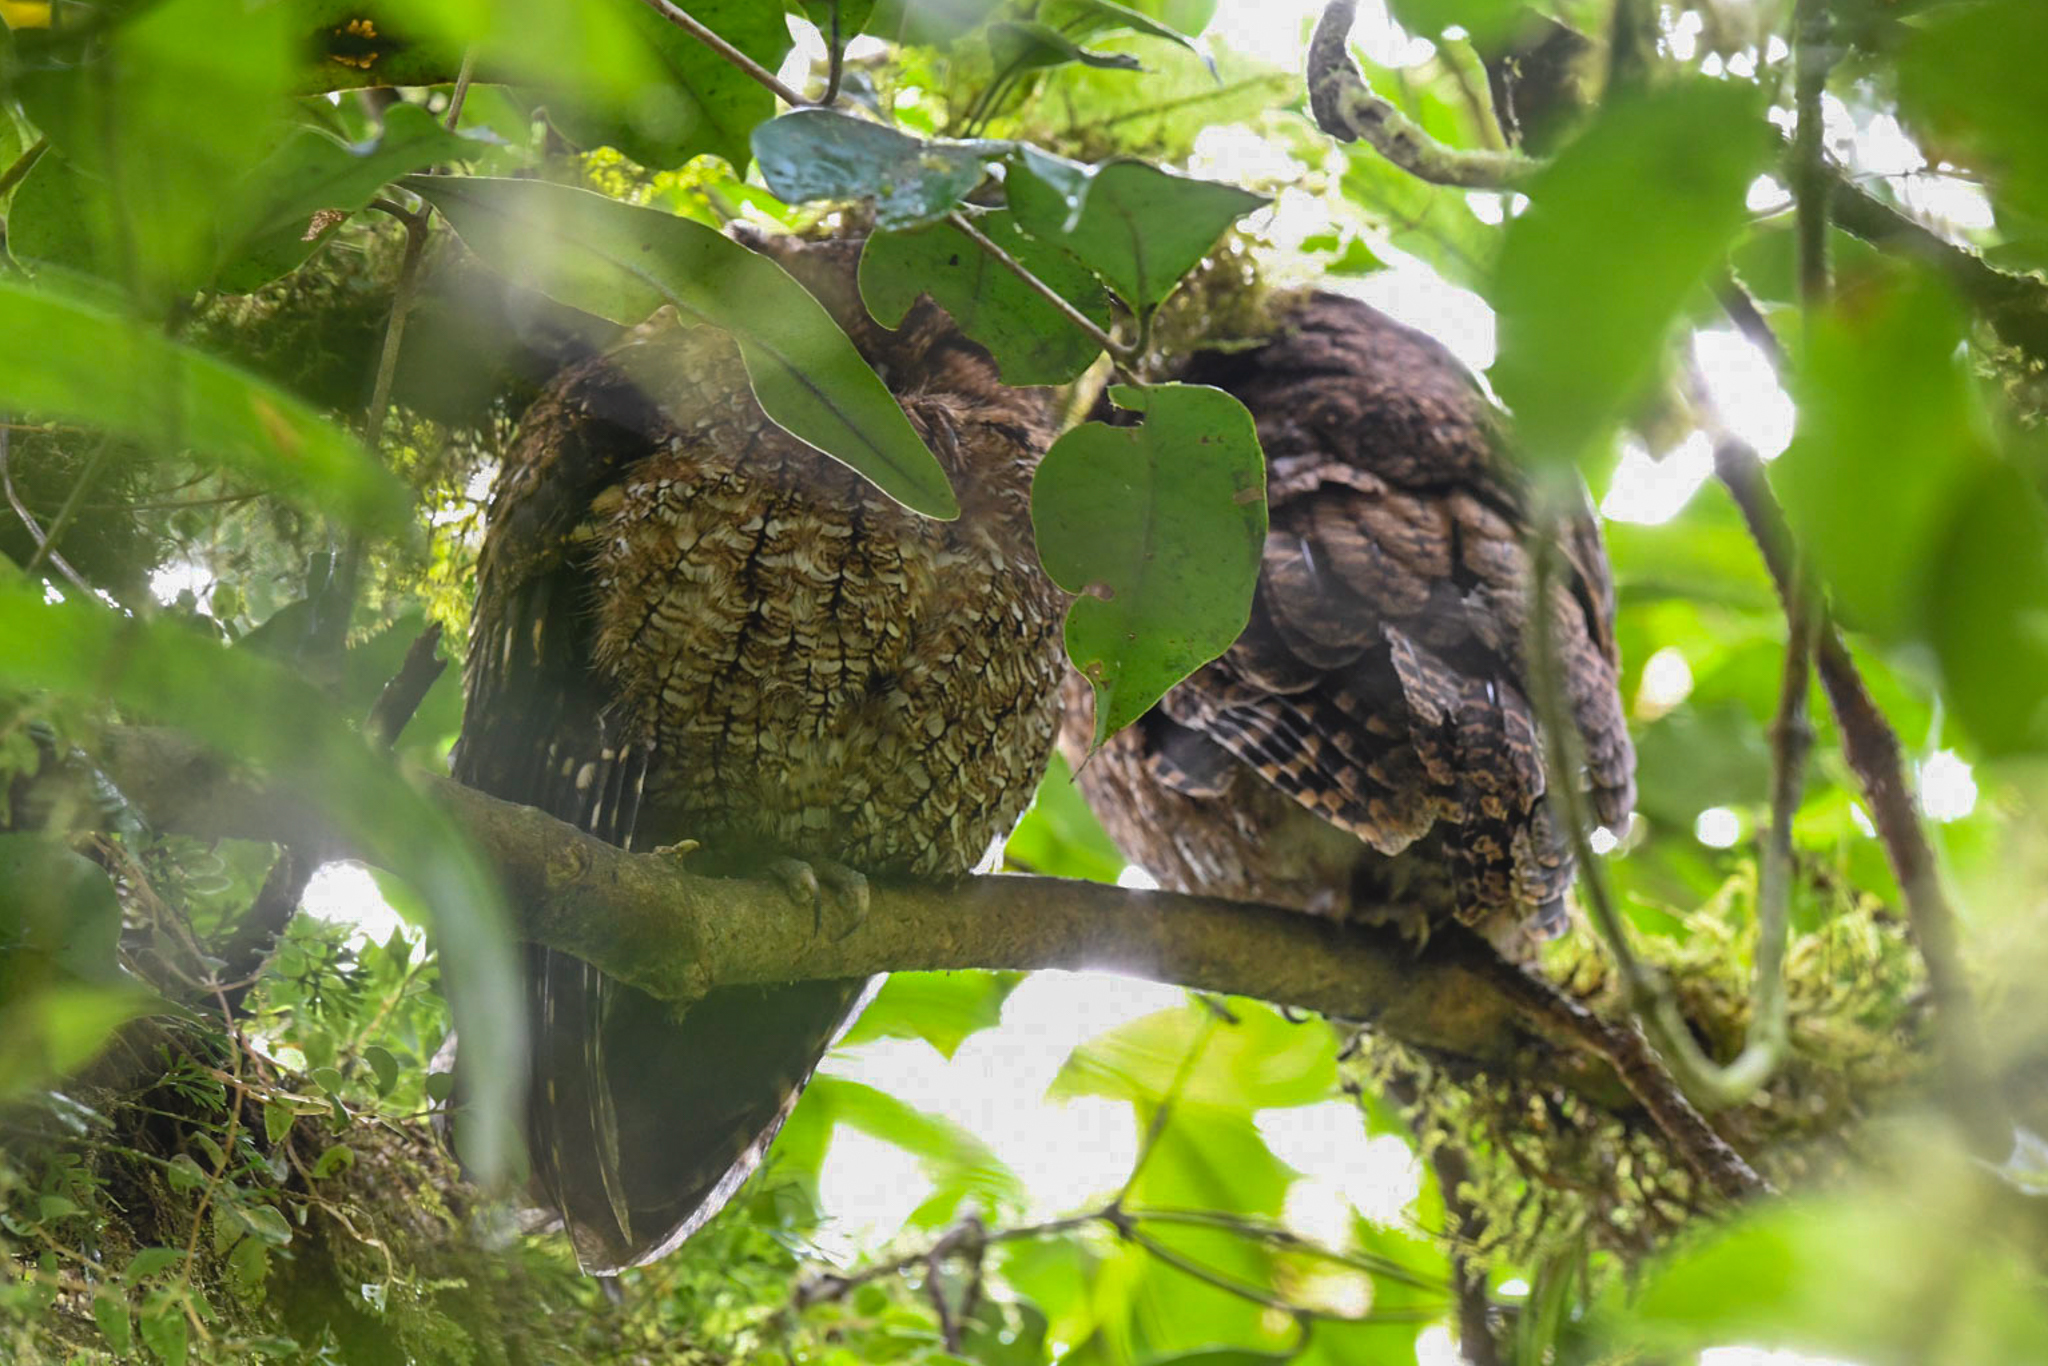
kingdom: Animalia
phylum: Chordata
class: Aves
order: Strigiformes
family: Strigidae
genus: Megascops
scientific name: Megascops clarkii
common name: Bare-shanked screech-owl
